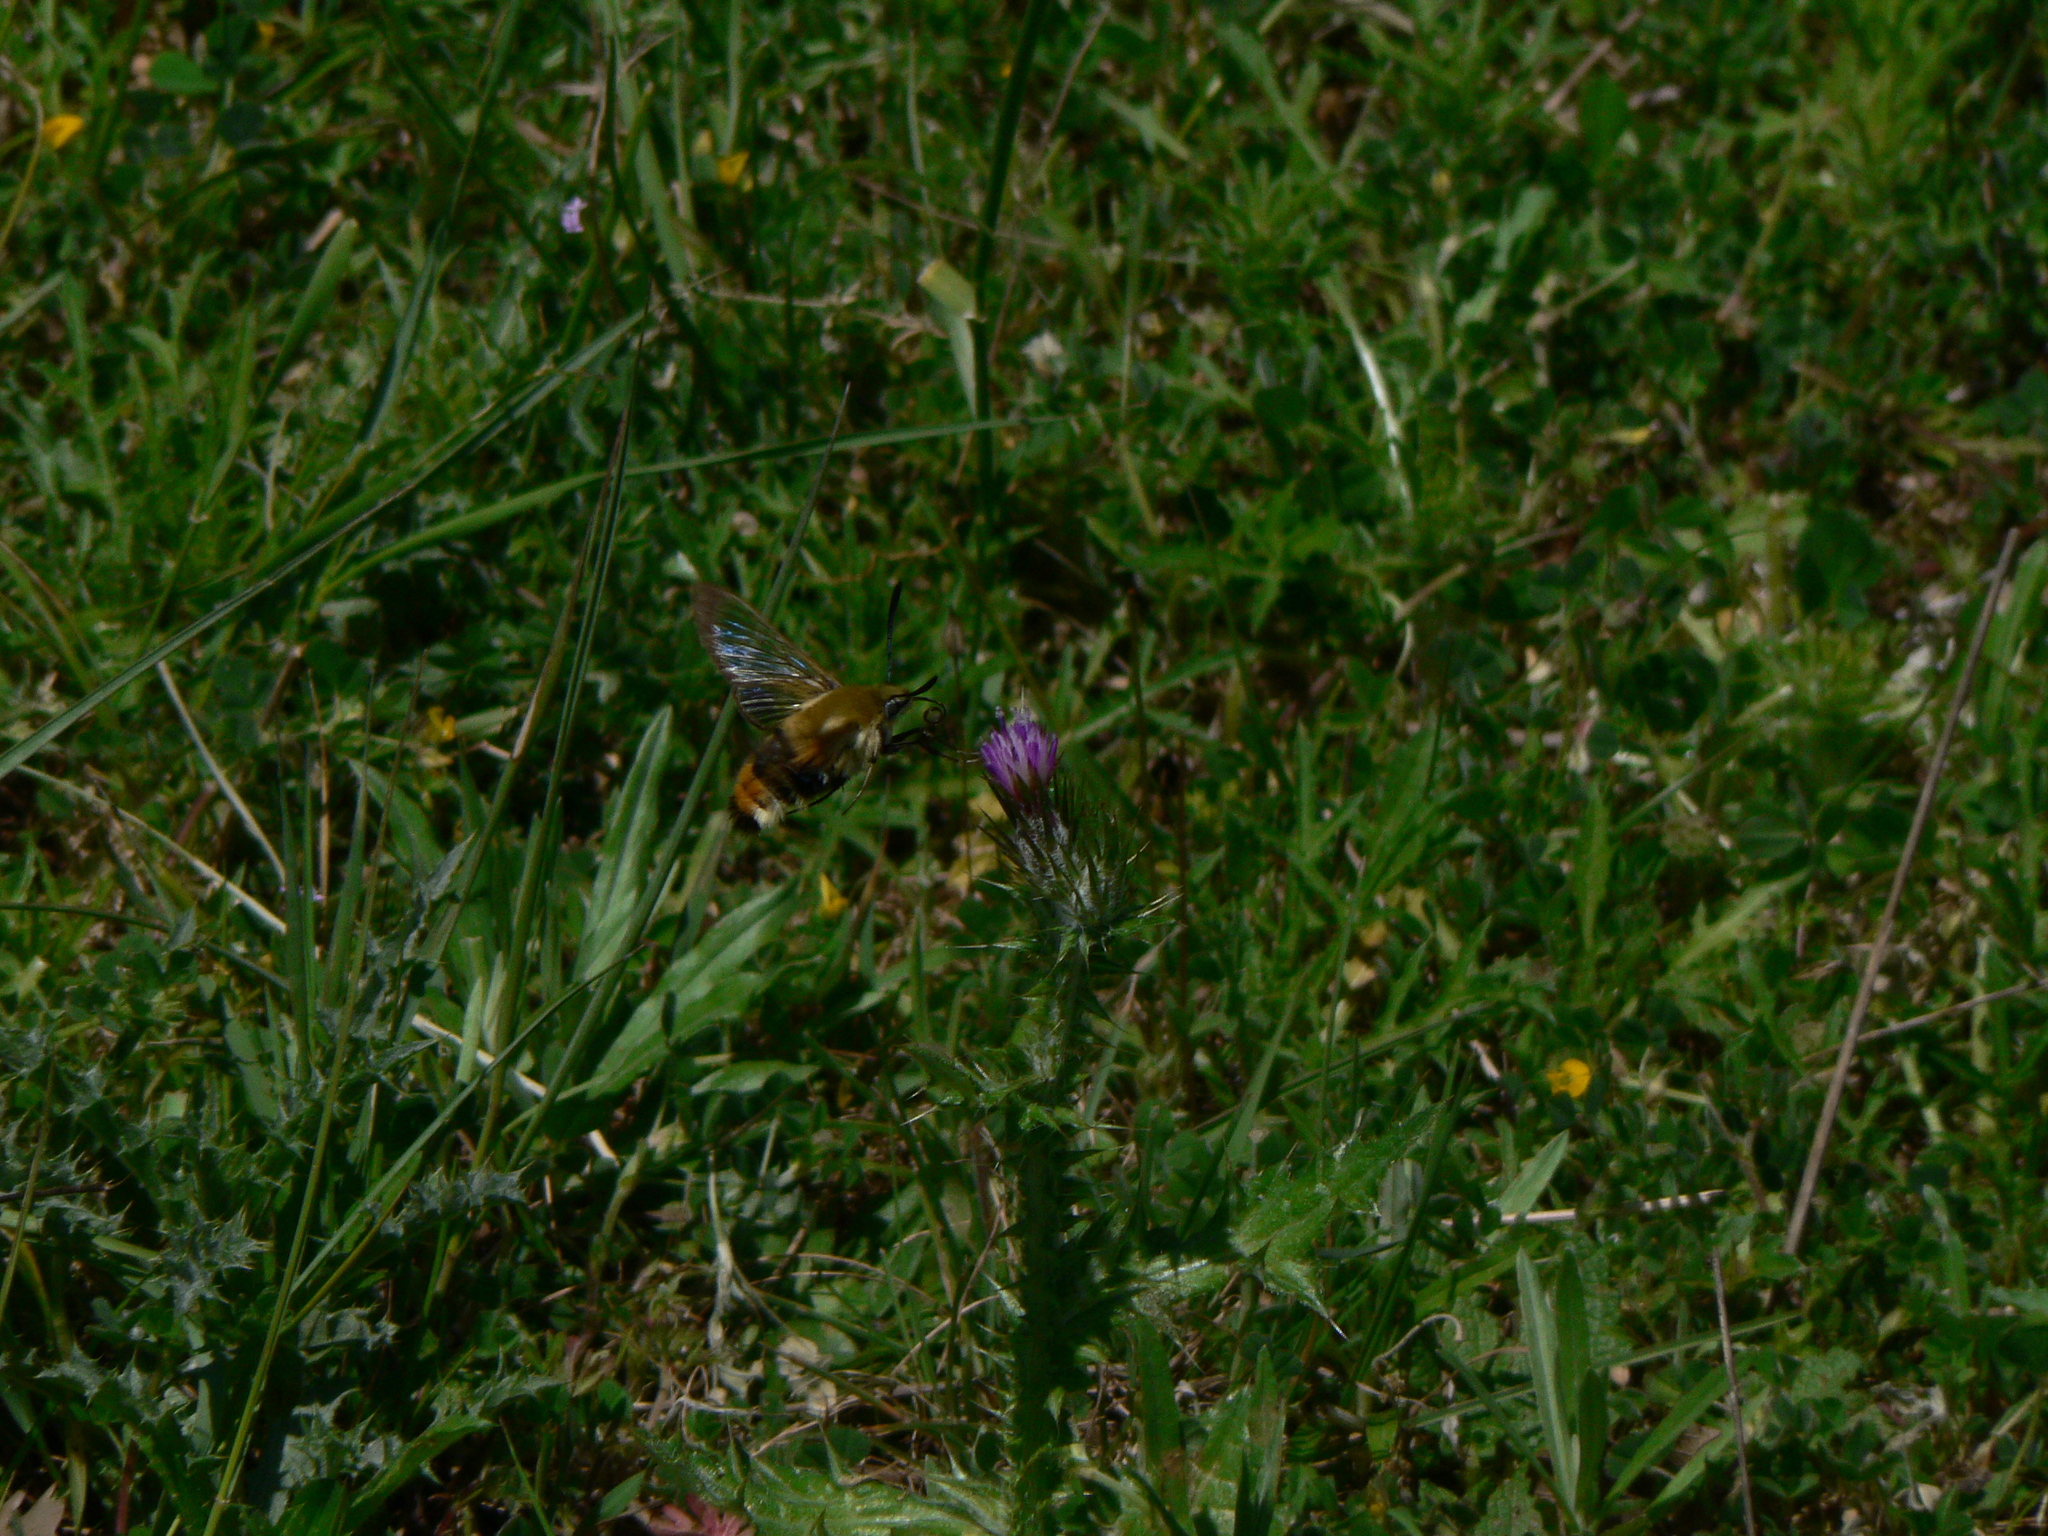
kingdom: Animalia
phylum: Arthropoda
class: Insecta
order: Lepidoptera
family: Sphingidae
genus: Hemaris
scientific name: Hemaris tityus
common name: Narrow-bordered bee hawk-moth
